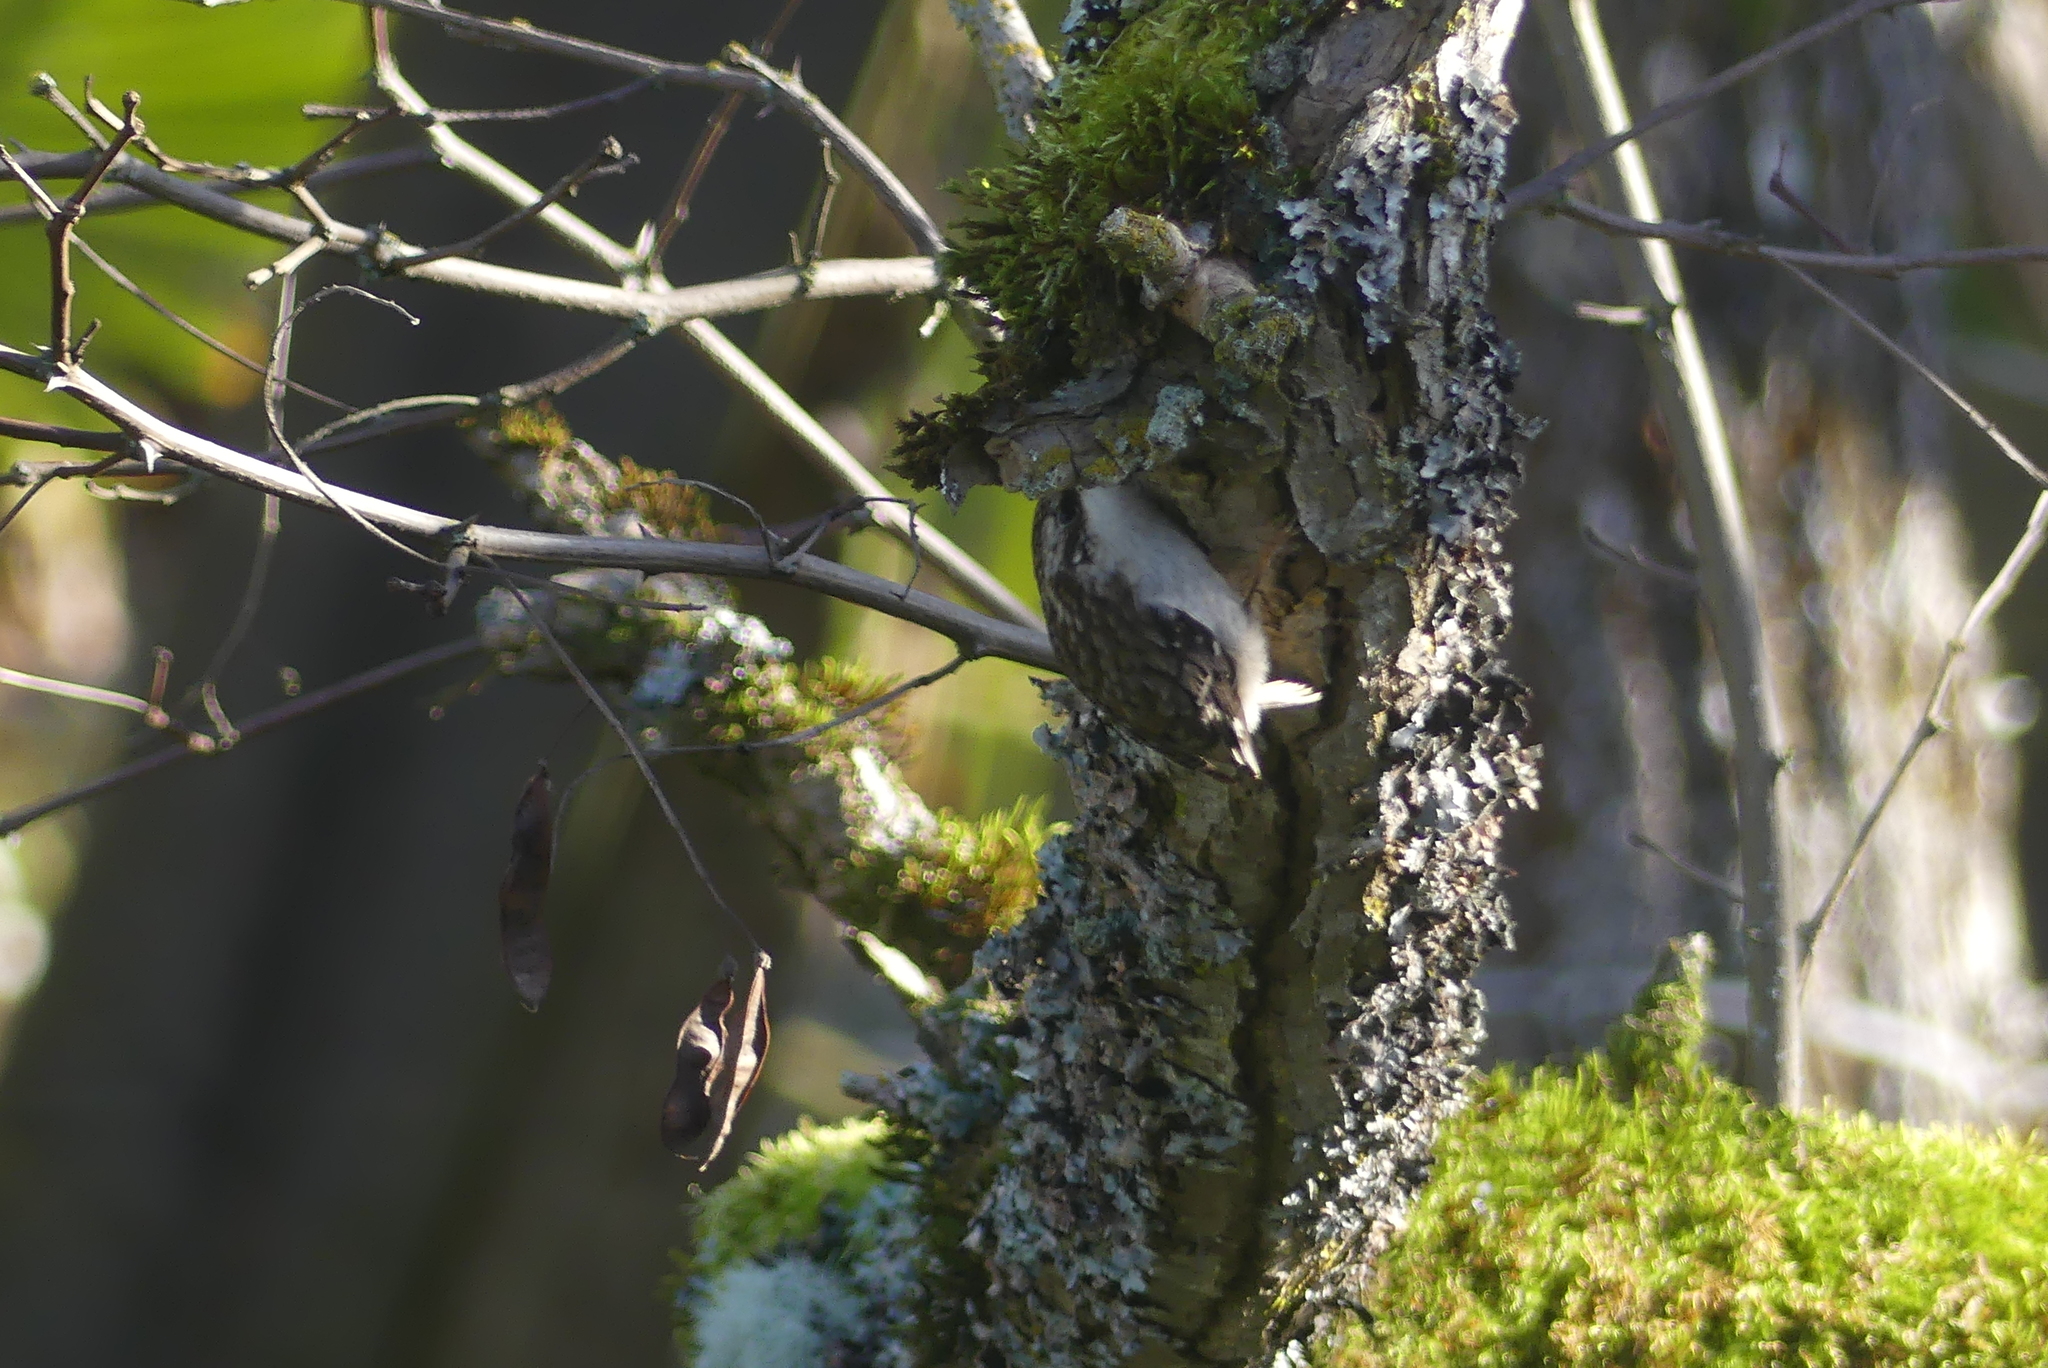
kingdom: Animalia
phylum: Chordata
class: Aves
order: Passeriformes
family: Certhiidae
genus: Certhia
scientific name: Certhia americana
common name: Brown creeper
